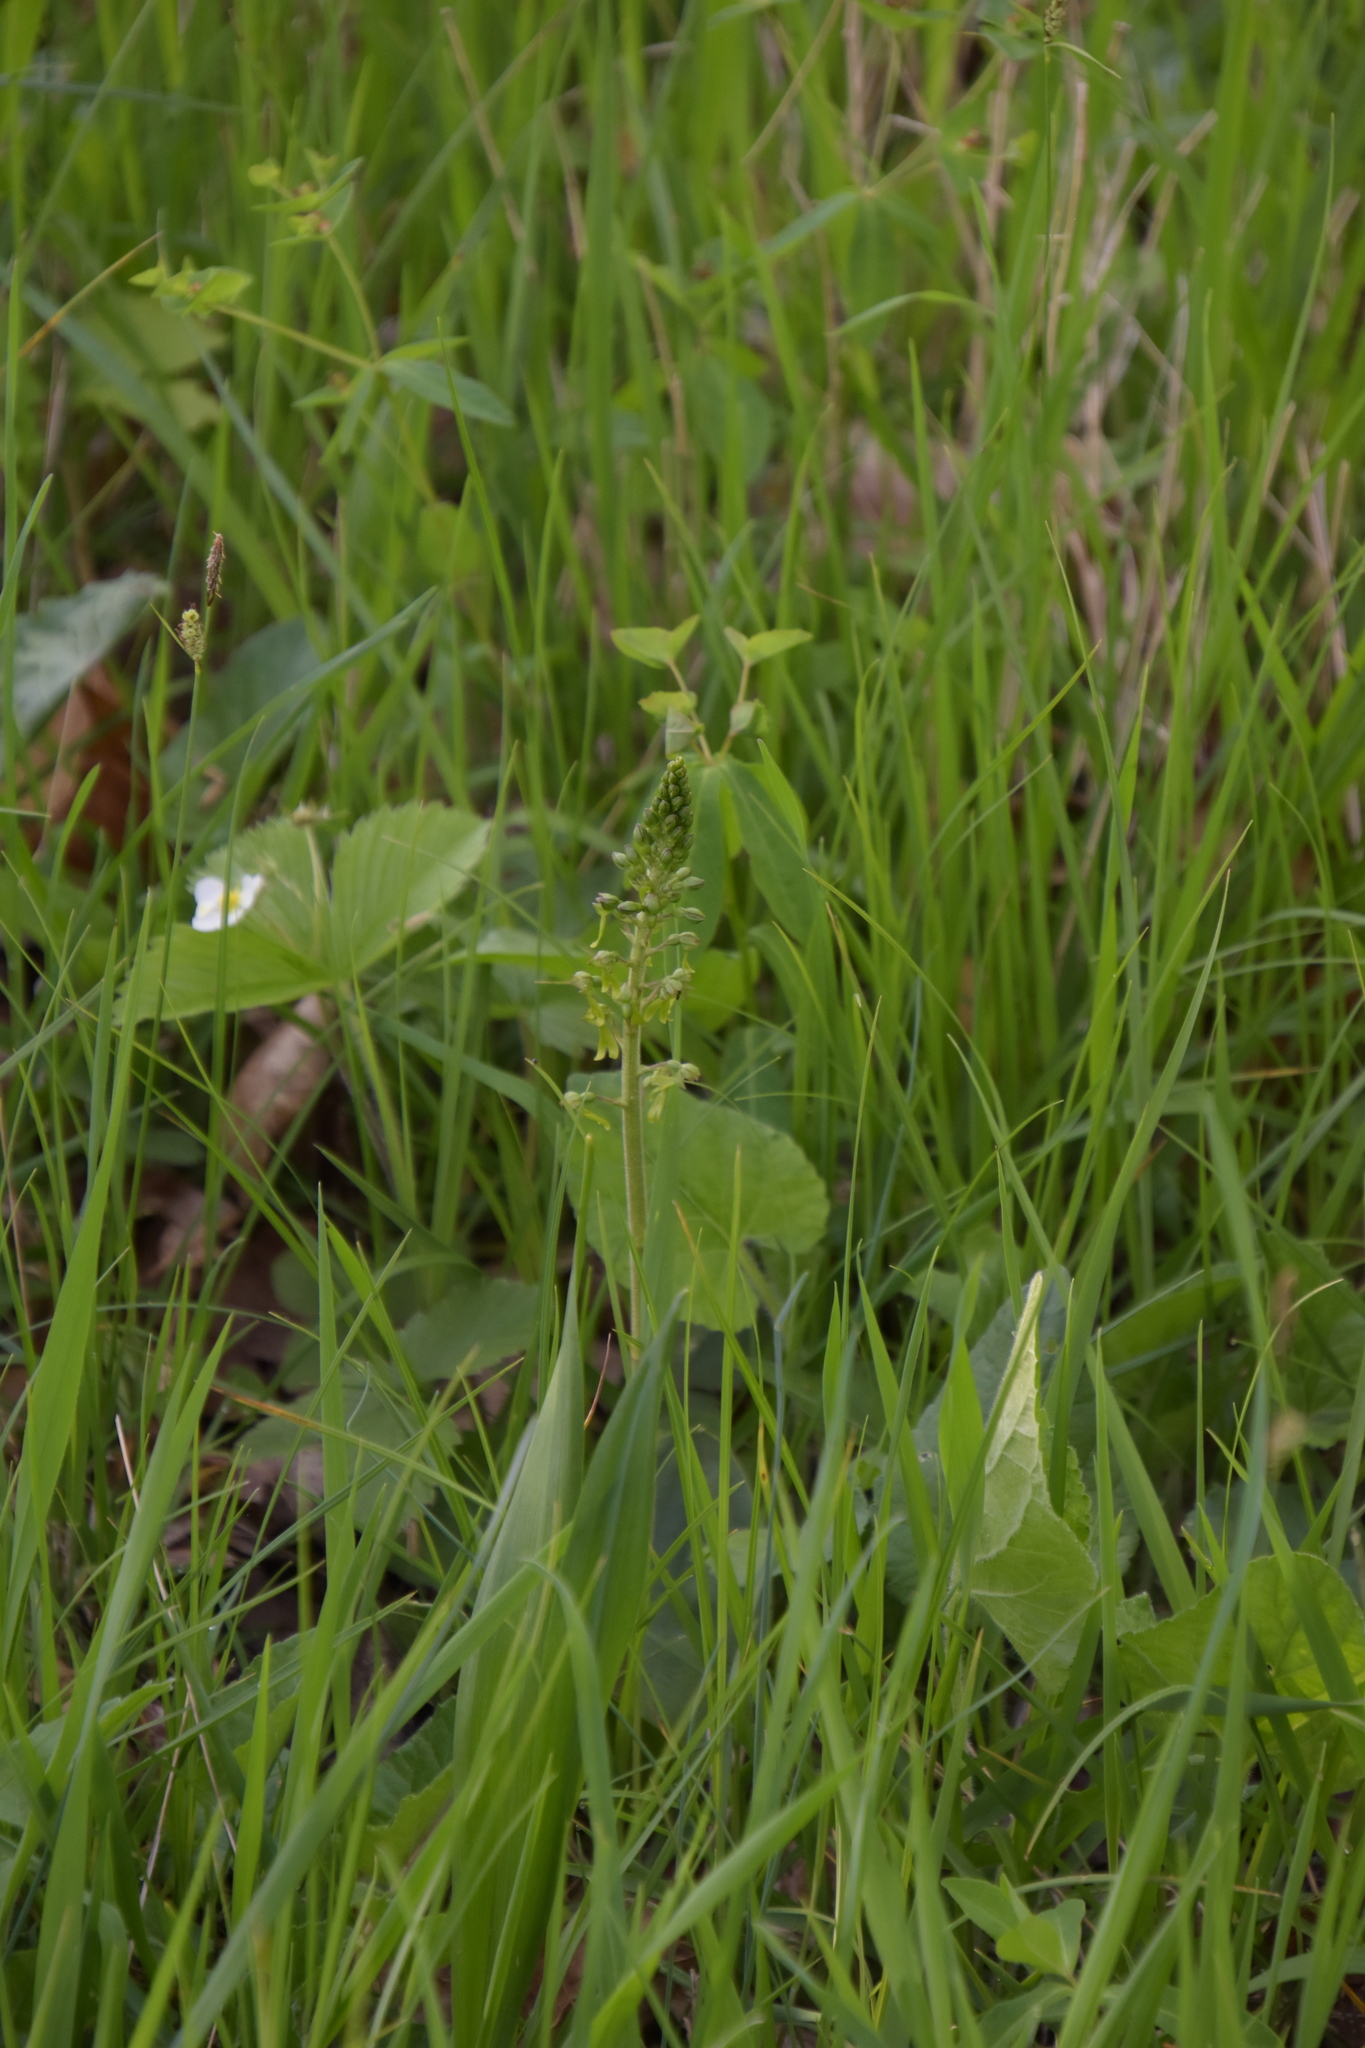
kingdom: Plantae
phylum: Tracheophyta
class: Liliopsida
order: Asparagales
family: Orchidaceae
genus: Neottia
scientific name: Neottia ovata
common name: Common twayblade
